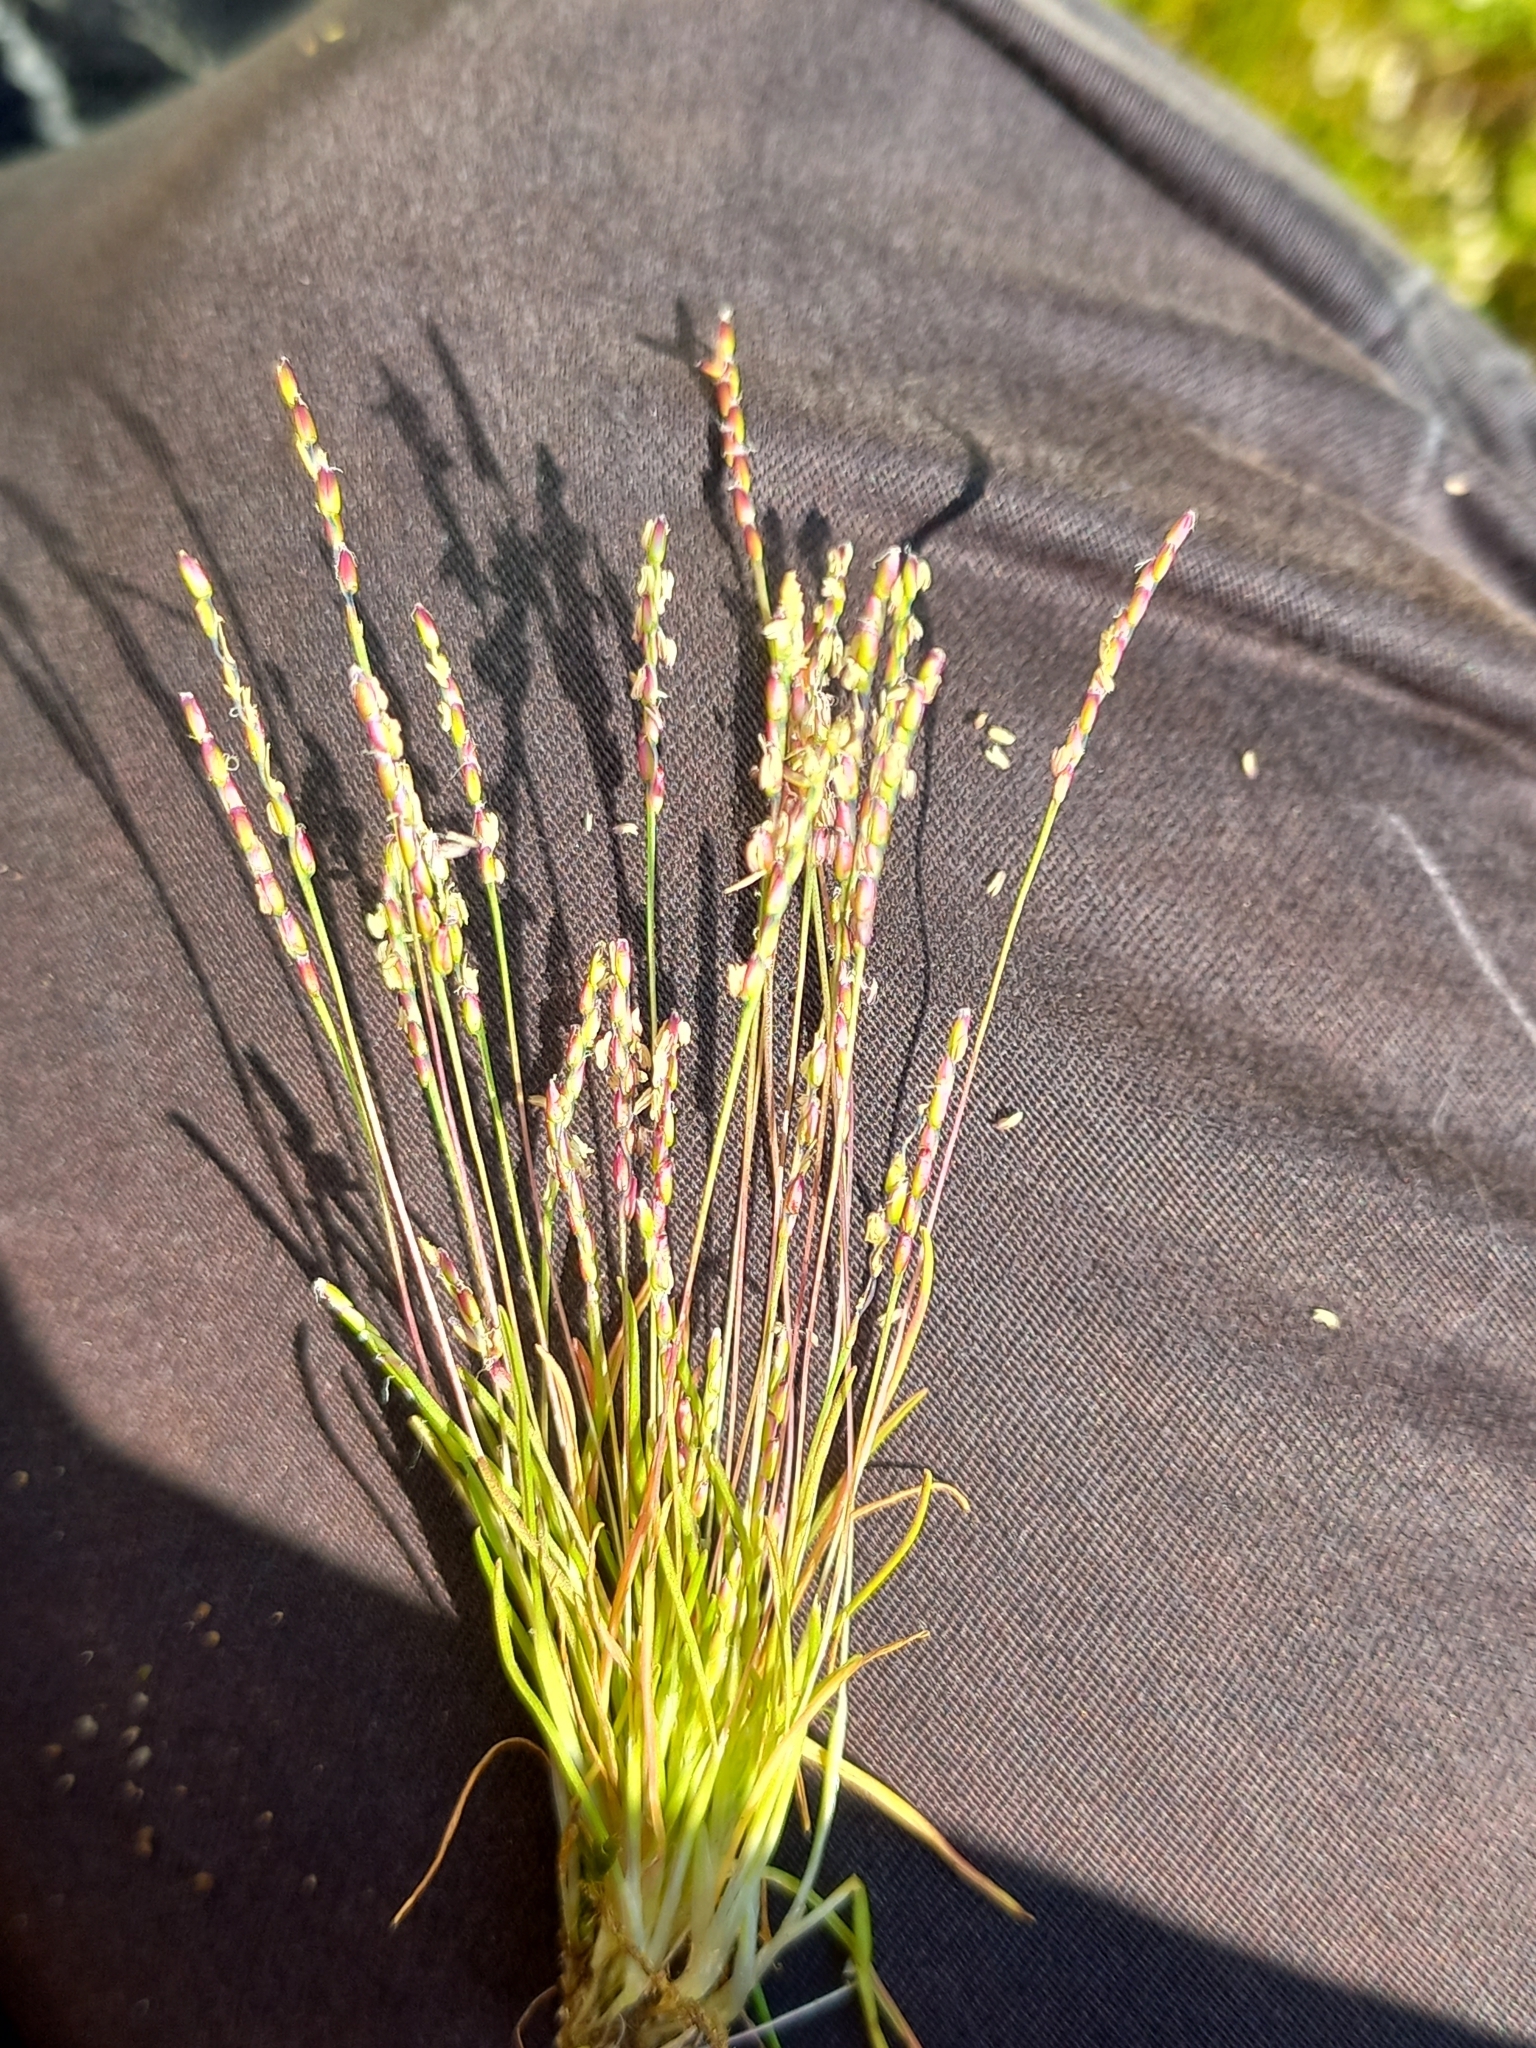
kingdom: Plantae
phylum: Tracheophyta
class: Liliopsida
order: Poales
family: Poaceae
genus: Mibora
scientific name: Mibora minima
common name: Early sand-grass
